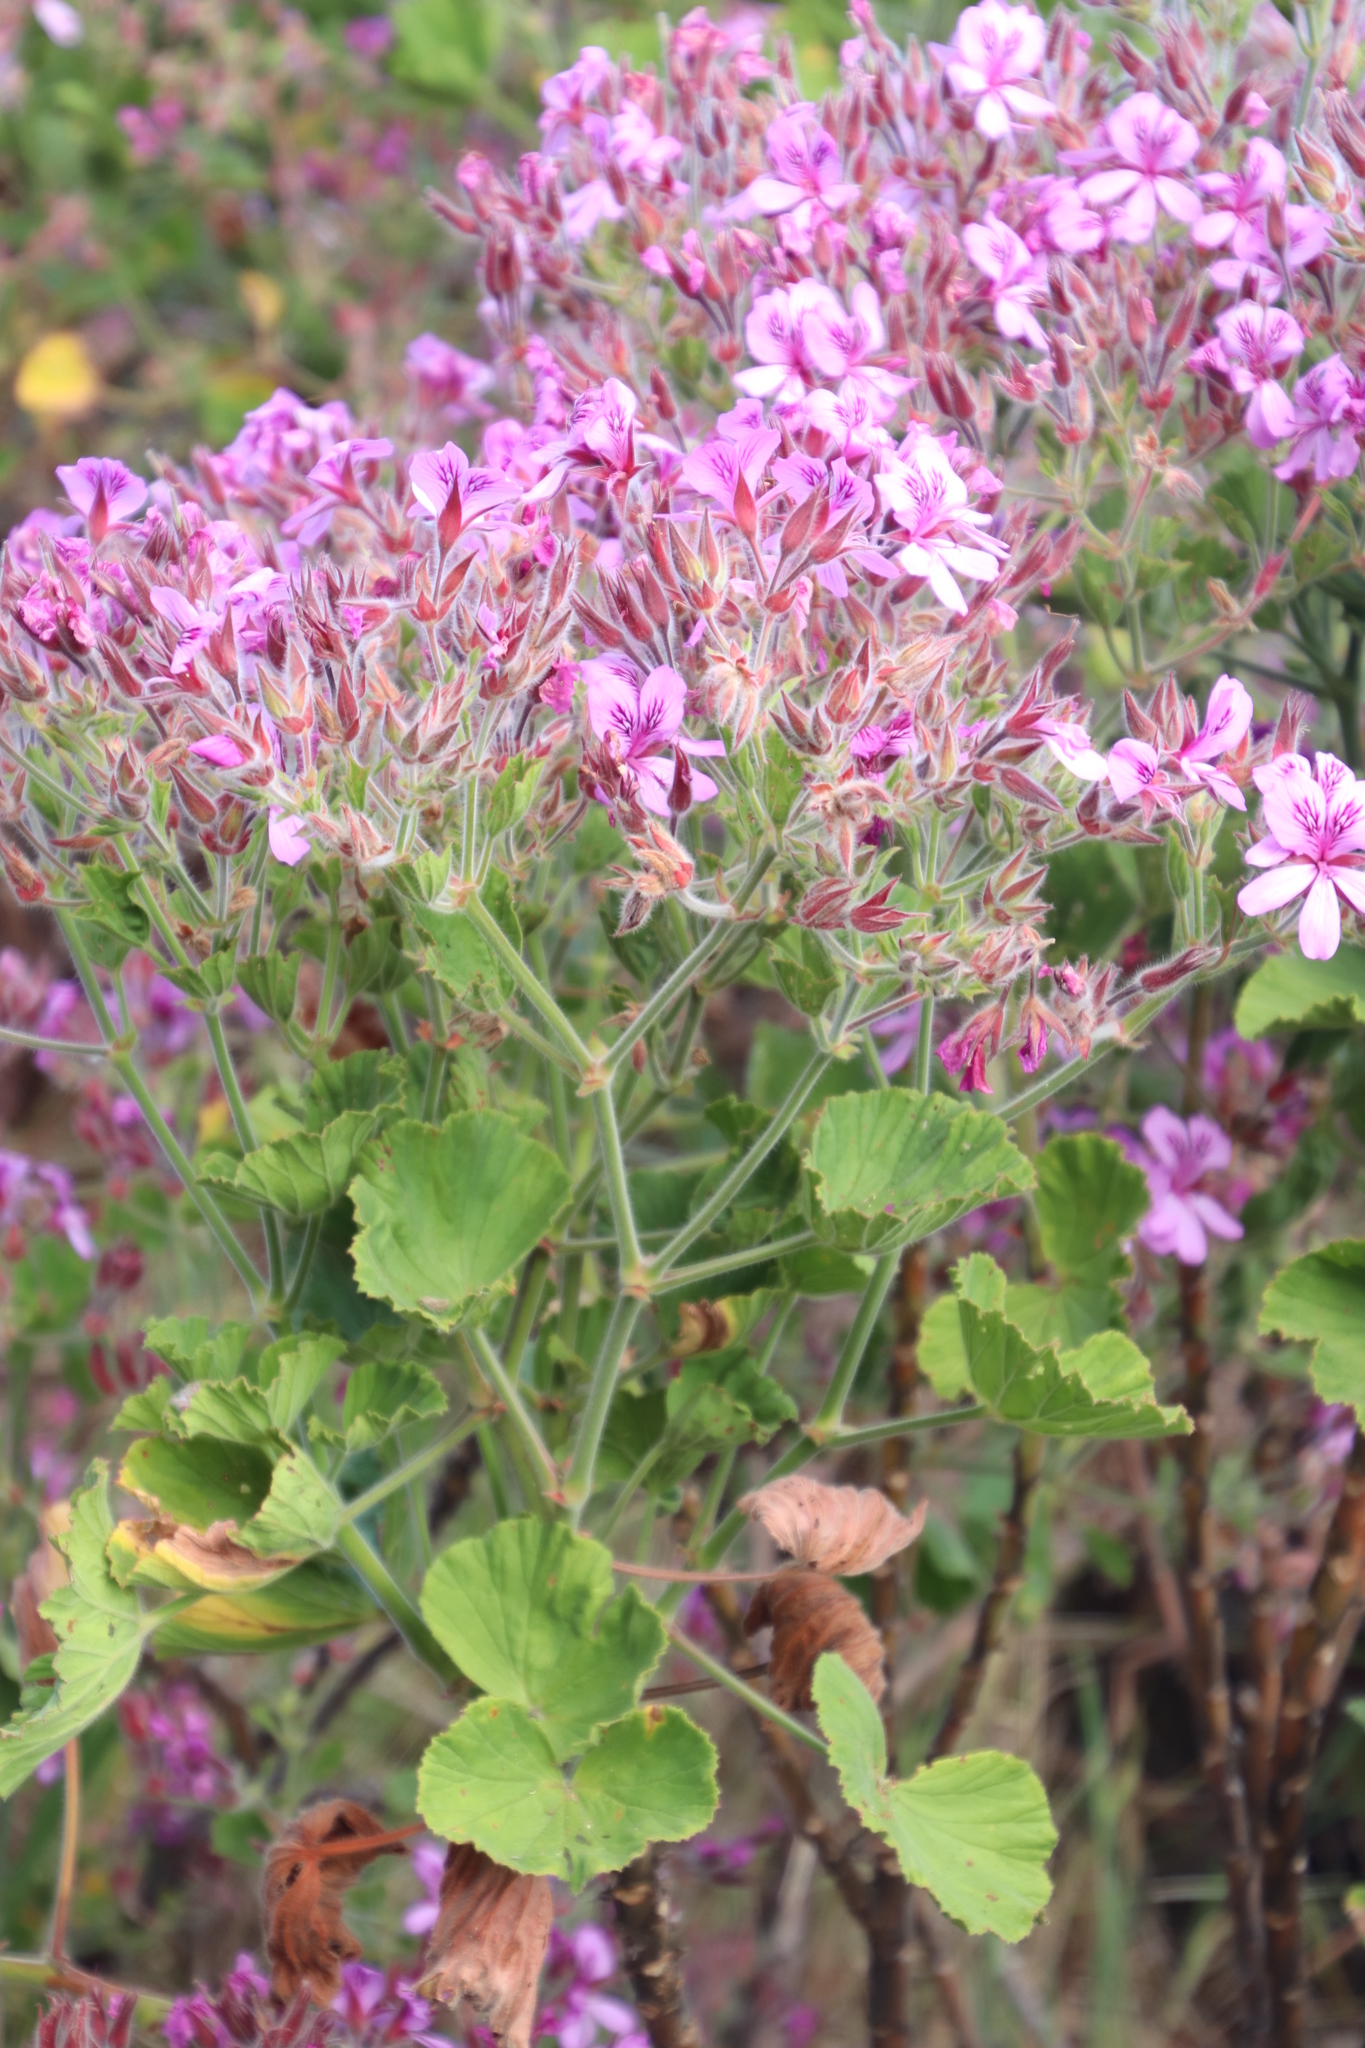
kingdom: Plantae
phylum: Tracheophyta
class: Magnoliopsida
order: Geraniales
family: Geraniaceae
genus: Pelargonium
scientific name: Pelargonium cucullatum
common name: Tree pelargonium
